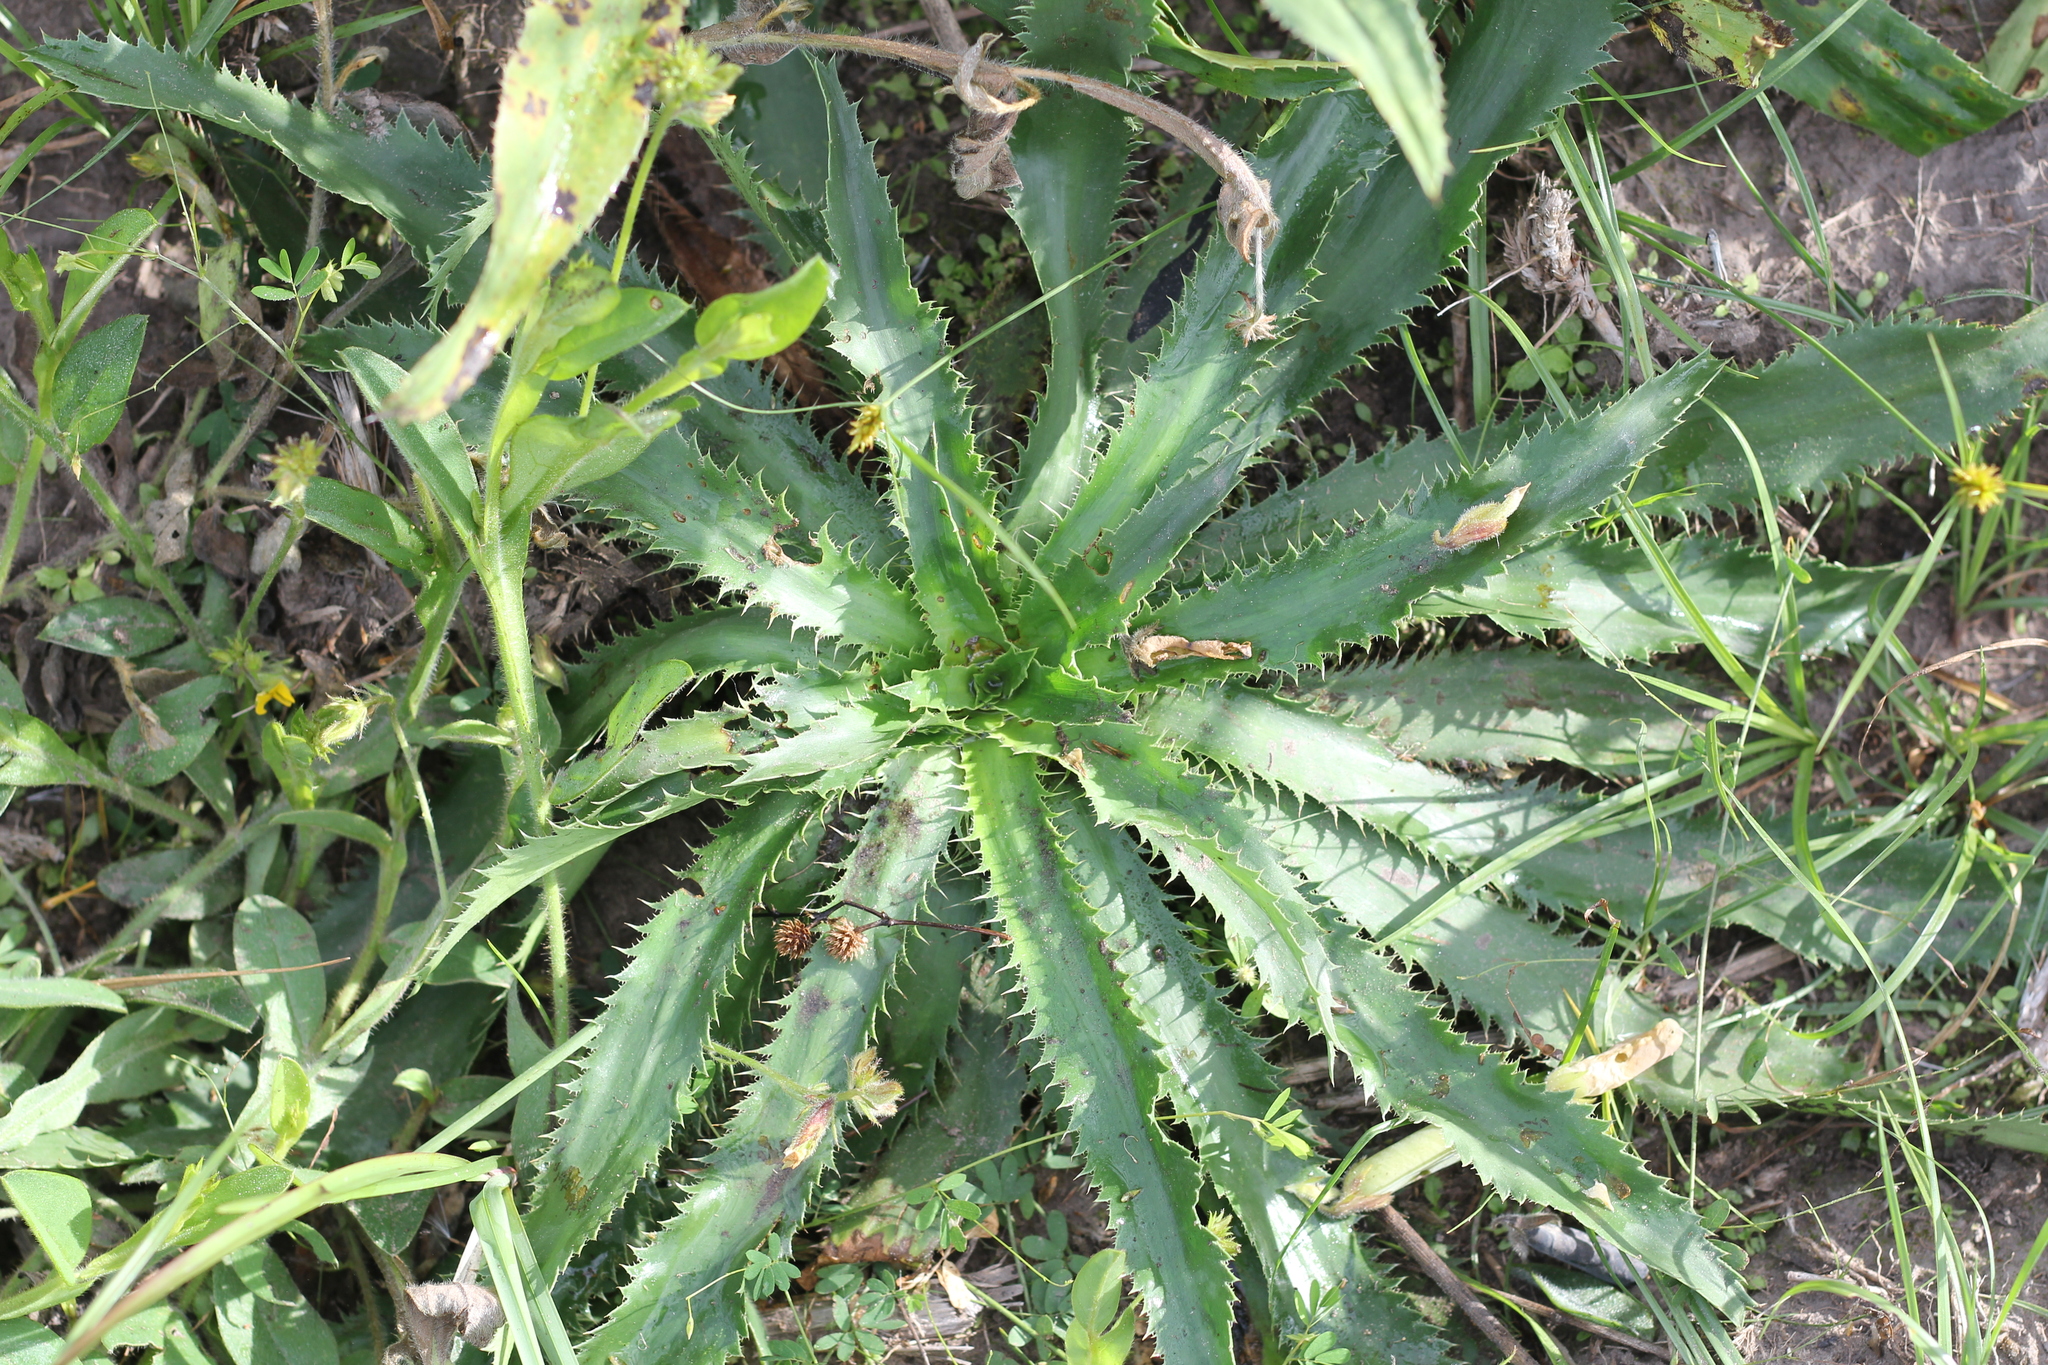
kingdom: Plantae
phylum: Tracheophyta
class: Magnoliopsida
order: Apiales
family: Apiaceae
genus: Eryngium
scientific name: Eryngium elegans
